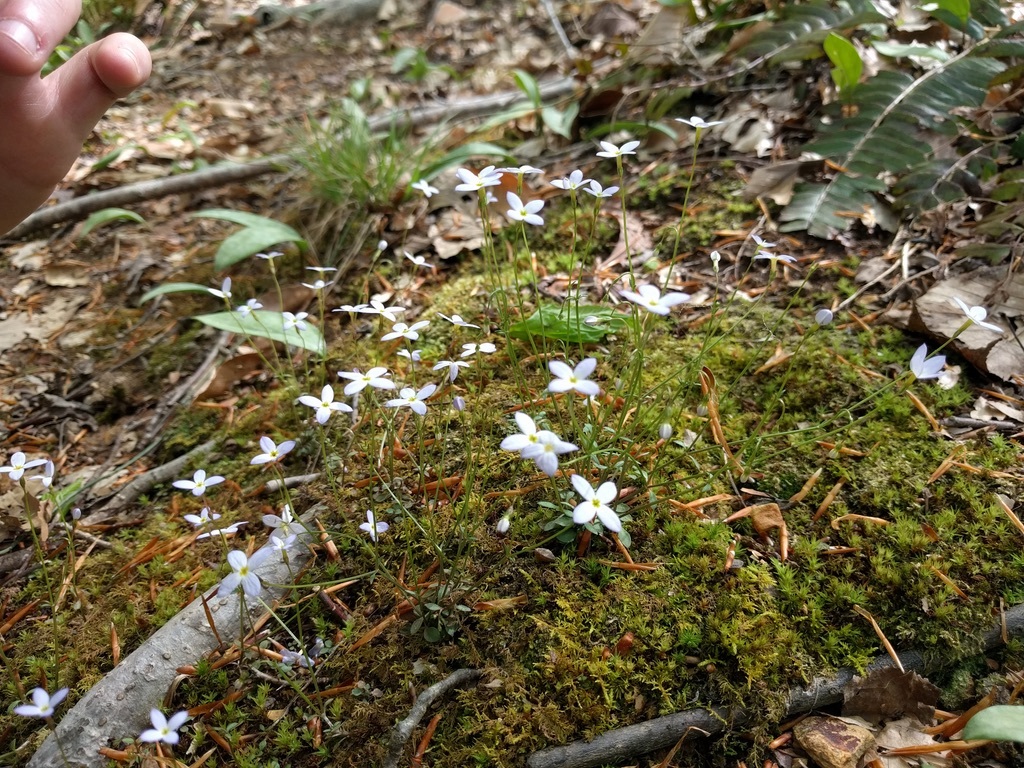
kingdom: Plantae
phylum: Tracheophyta
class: Magnoliopsida
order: Gentianales
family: Rubiaceae
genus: Houstonia
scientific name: Houstonia caerulea
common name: Bluets
